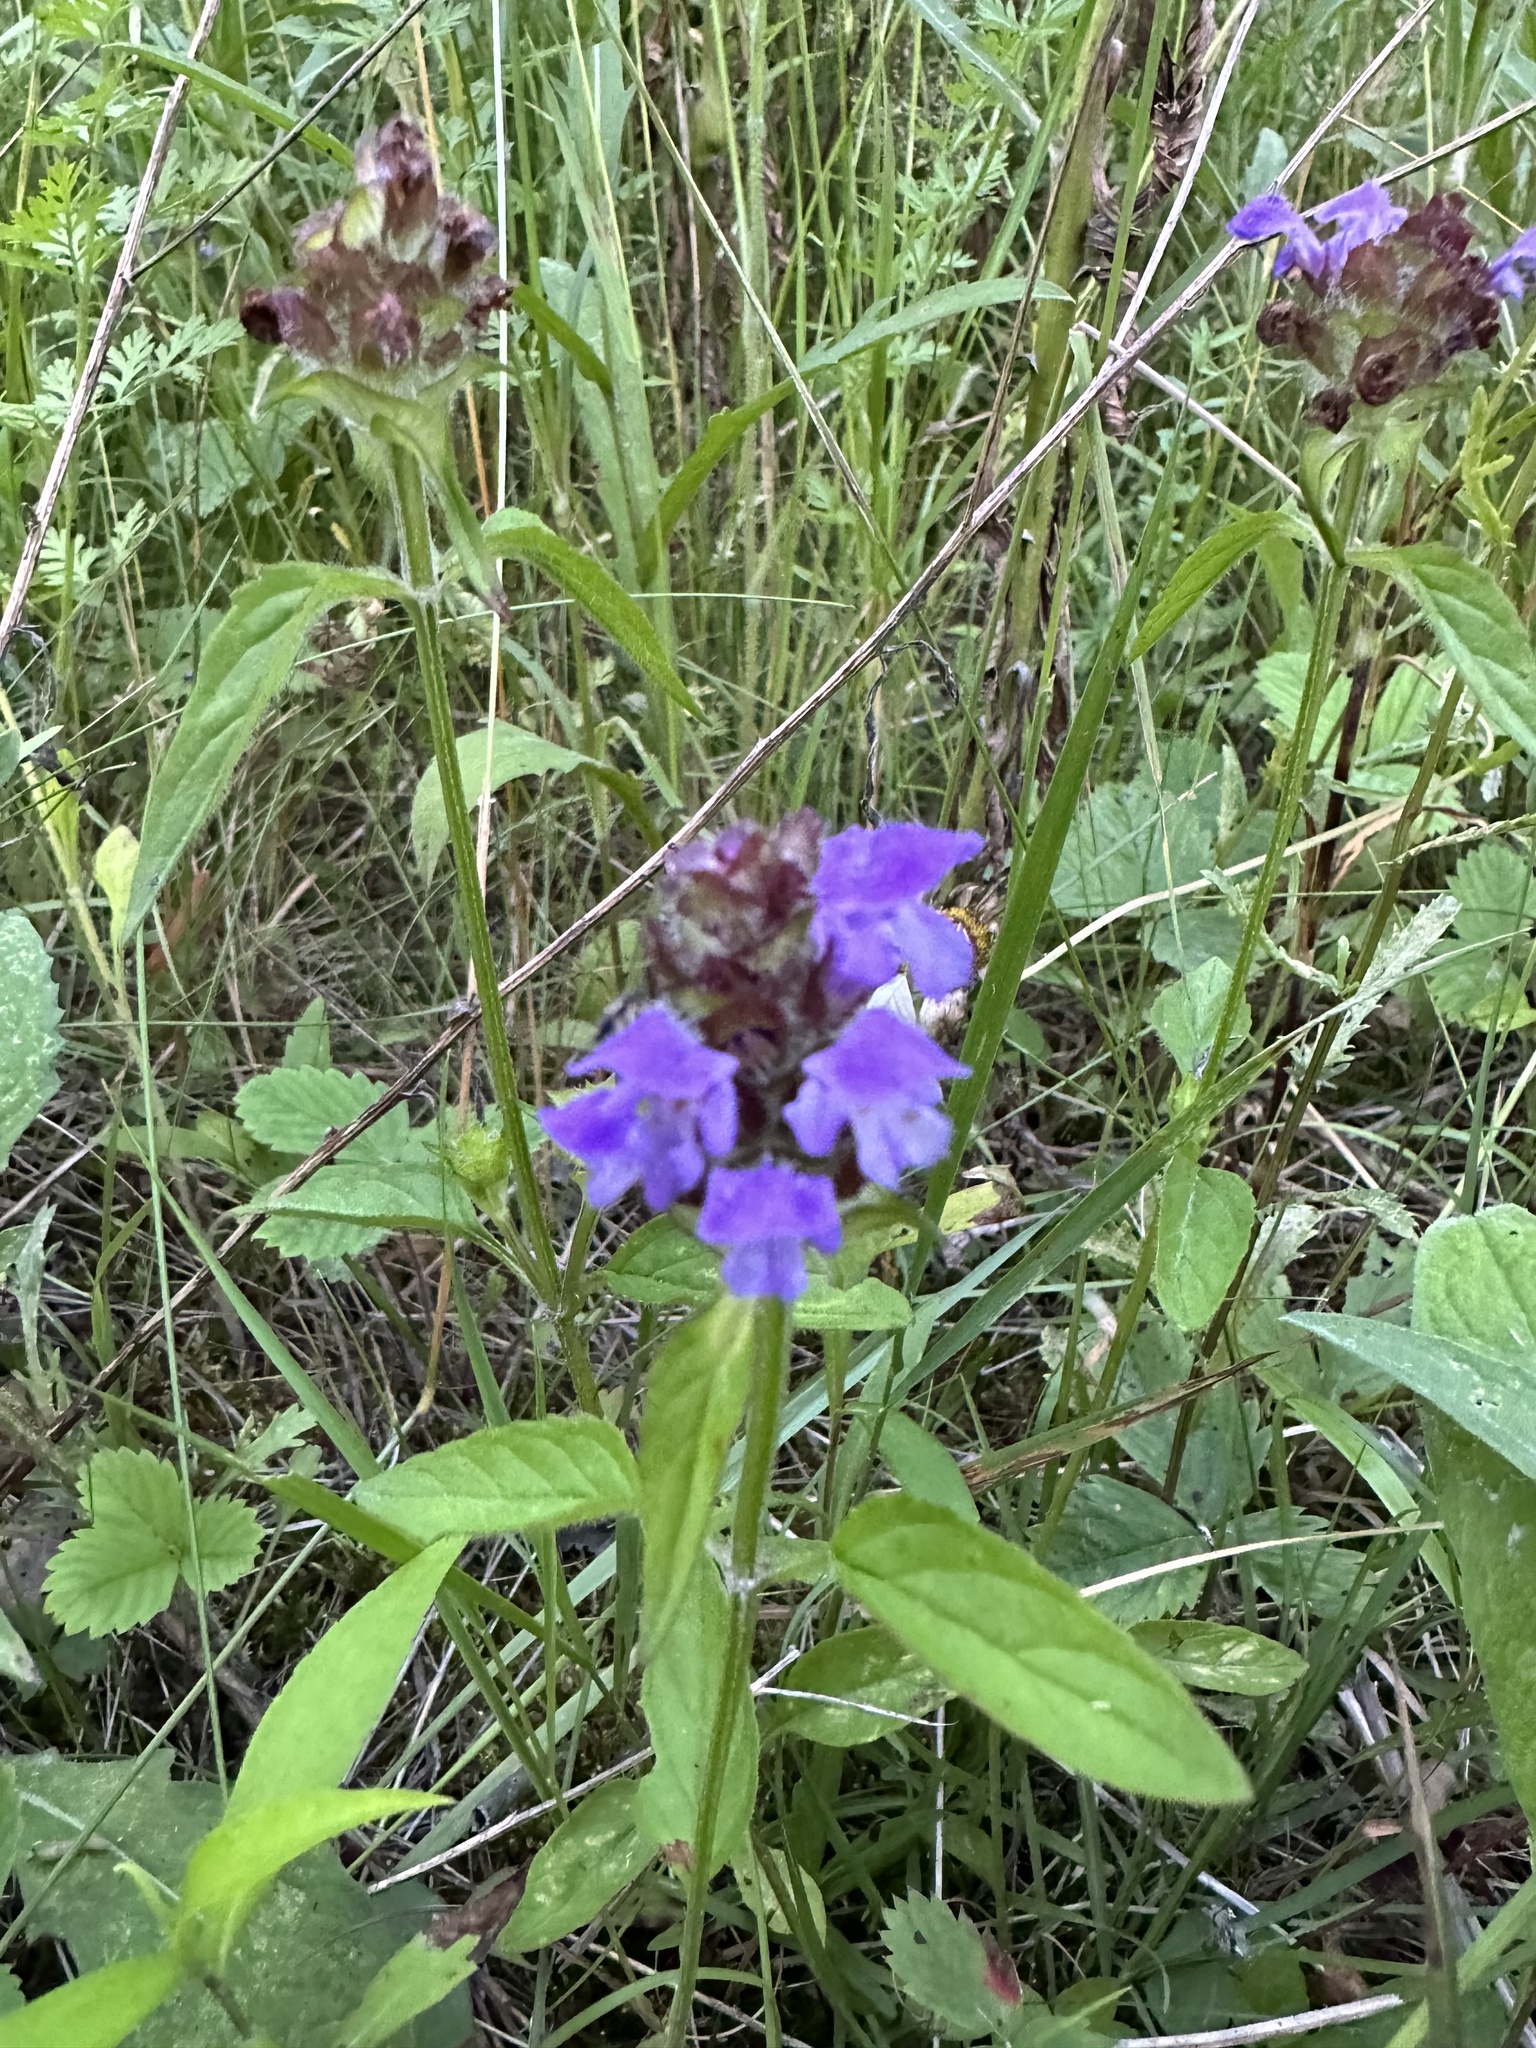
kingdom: Plantae
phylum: Tracheophyta
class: Magnoliopsida
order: Lamiales
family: Lamiaceae
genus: Prunella
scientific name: Prunella vulgaris
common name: Heal-all
